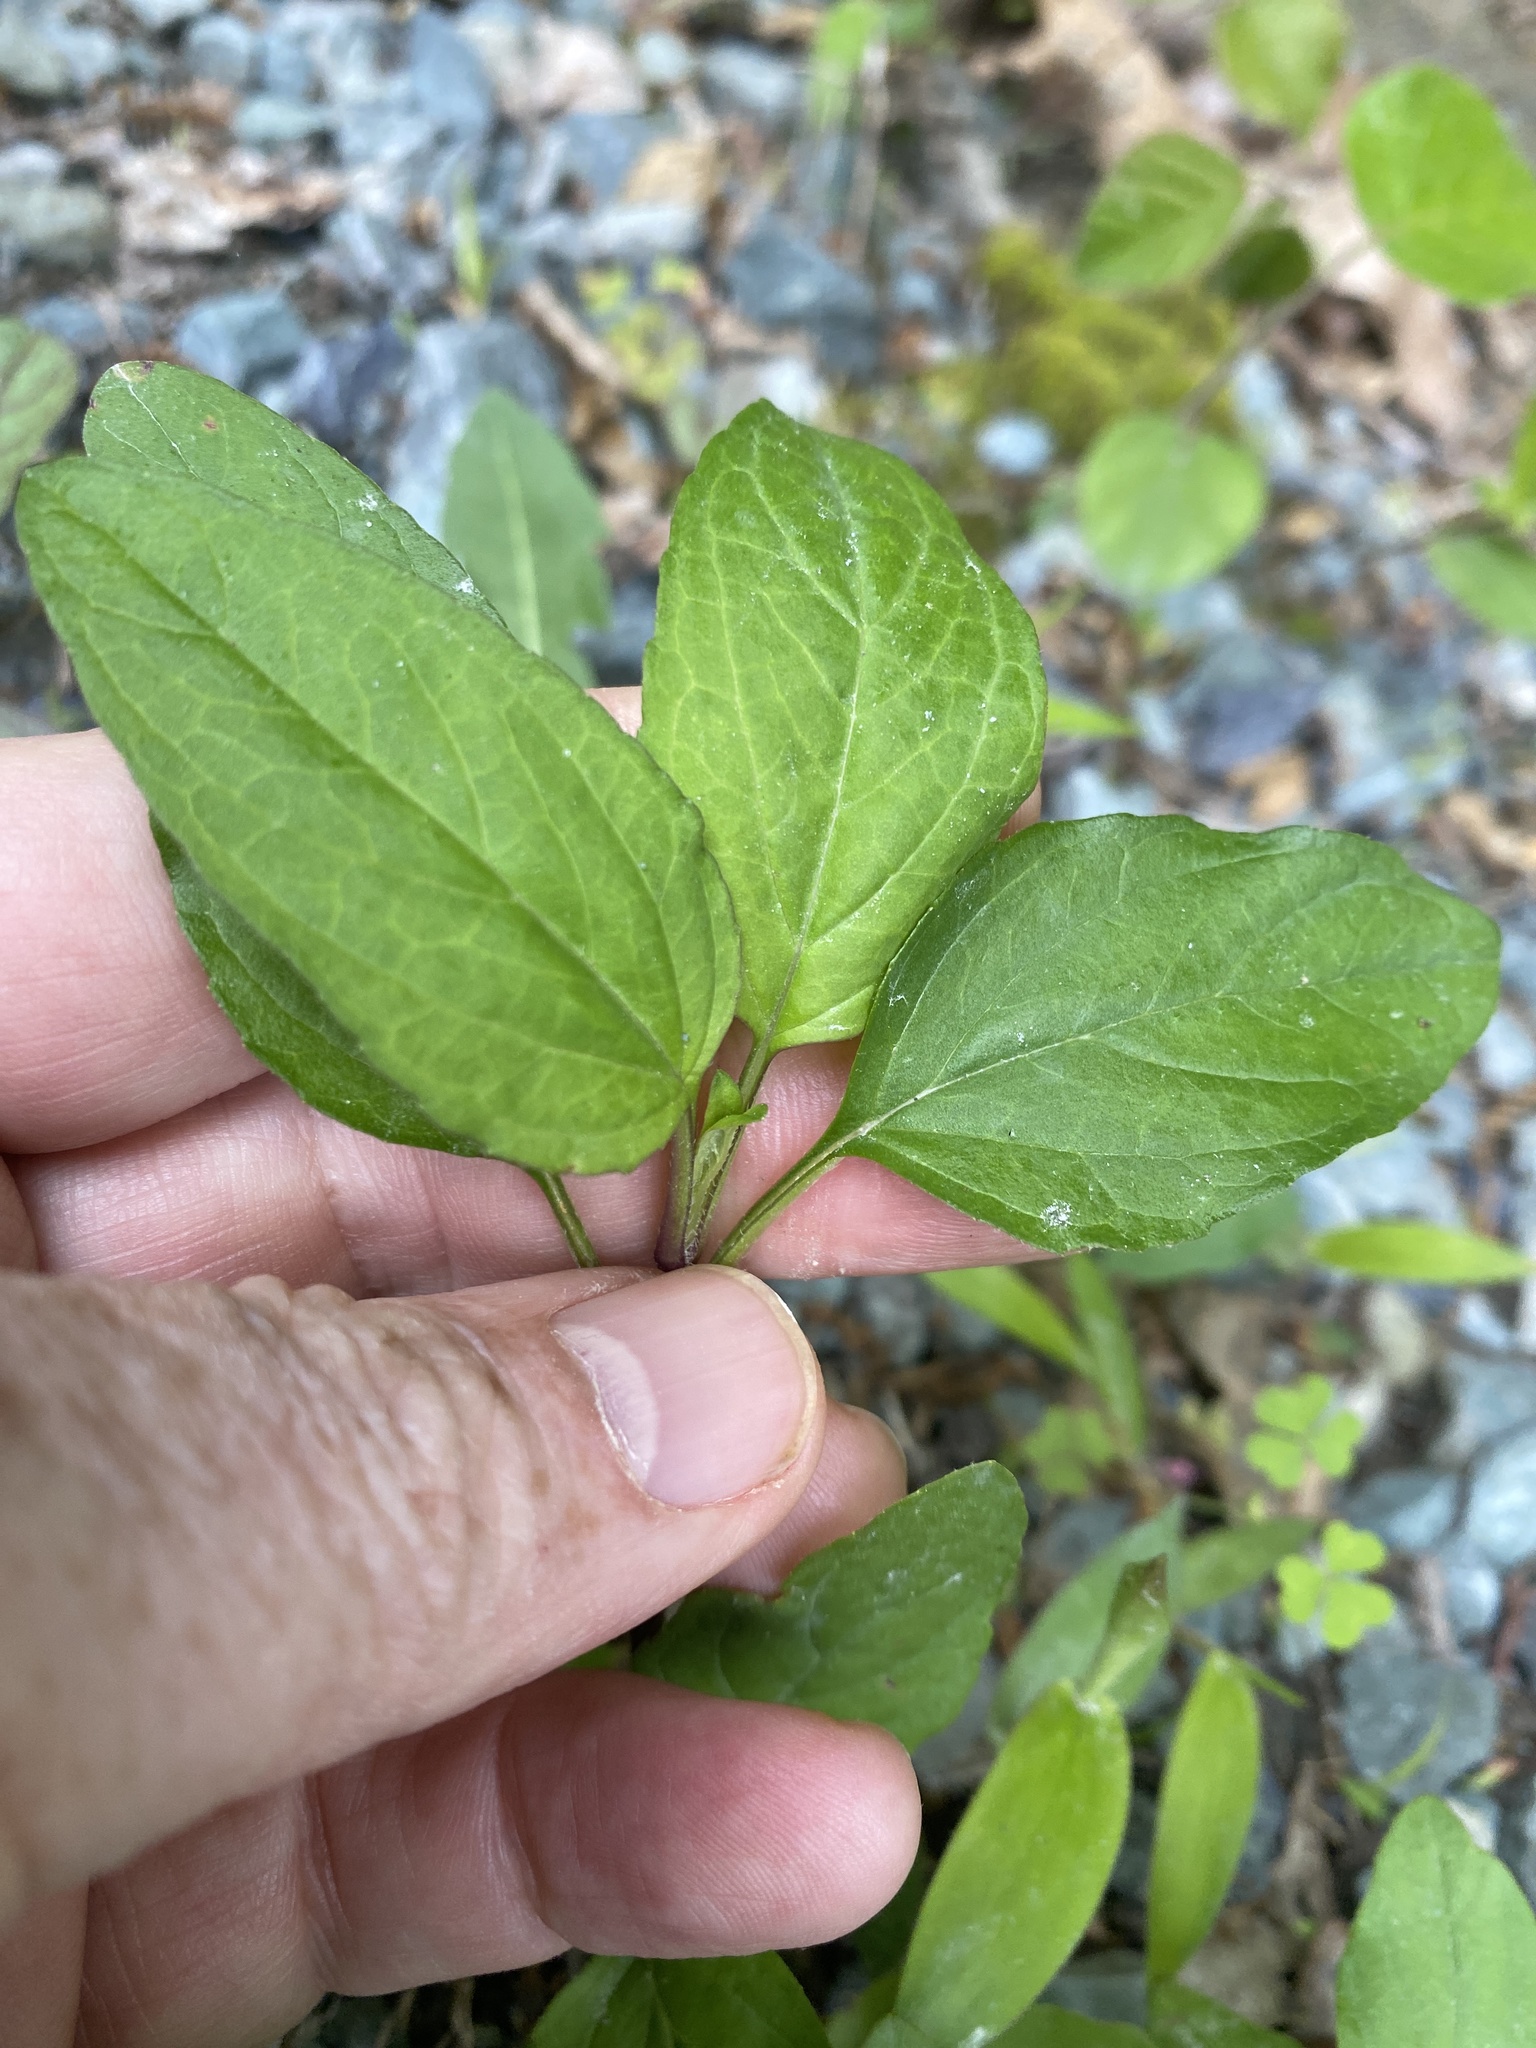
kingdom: Plantae
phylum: Tracheophyta
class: Magnoliopsida
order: Lamiales
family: Lamiaceae
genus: Prunella
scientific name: Prunella vulgaris
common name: Heal-all
